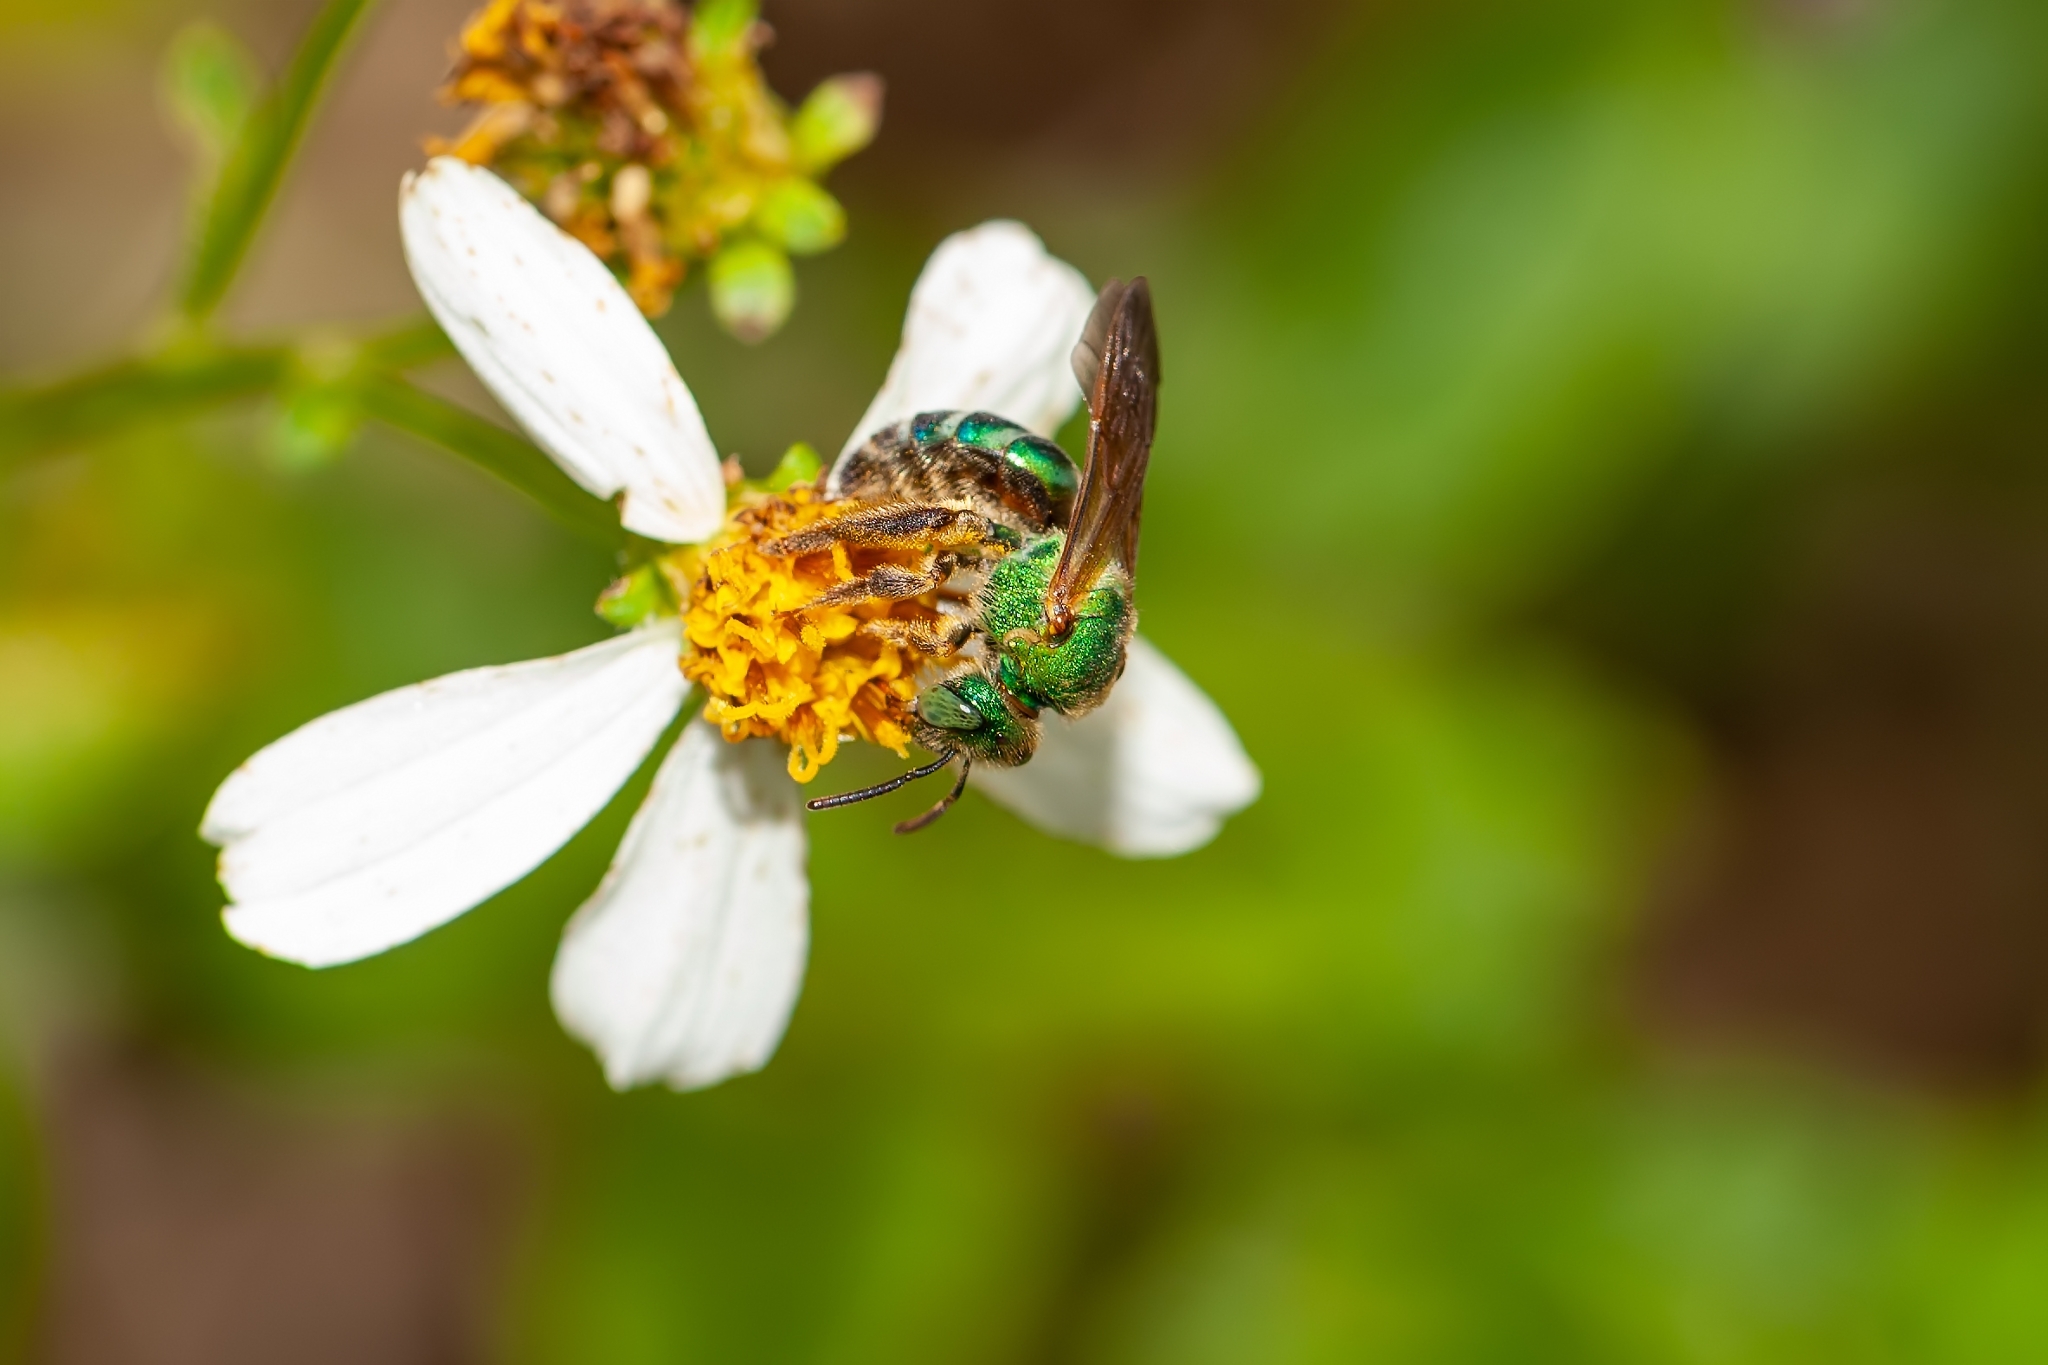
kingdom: Animalia
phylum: Arthropoda
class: Insecta
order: Hymenoptera
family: Halictidae
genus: Agapostemon
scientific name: Agapostemon splendens
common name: Brown-winged striped sweat bee
